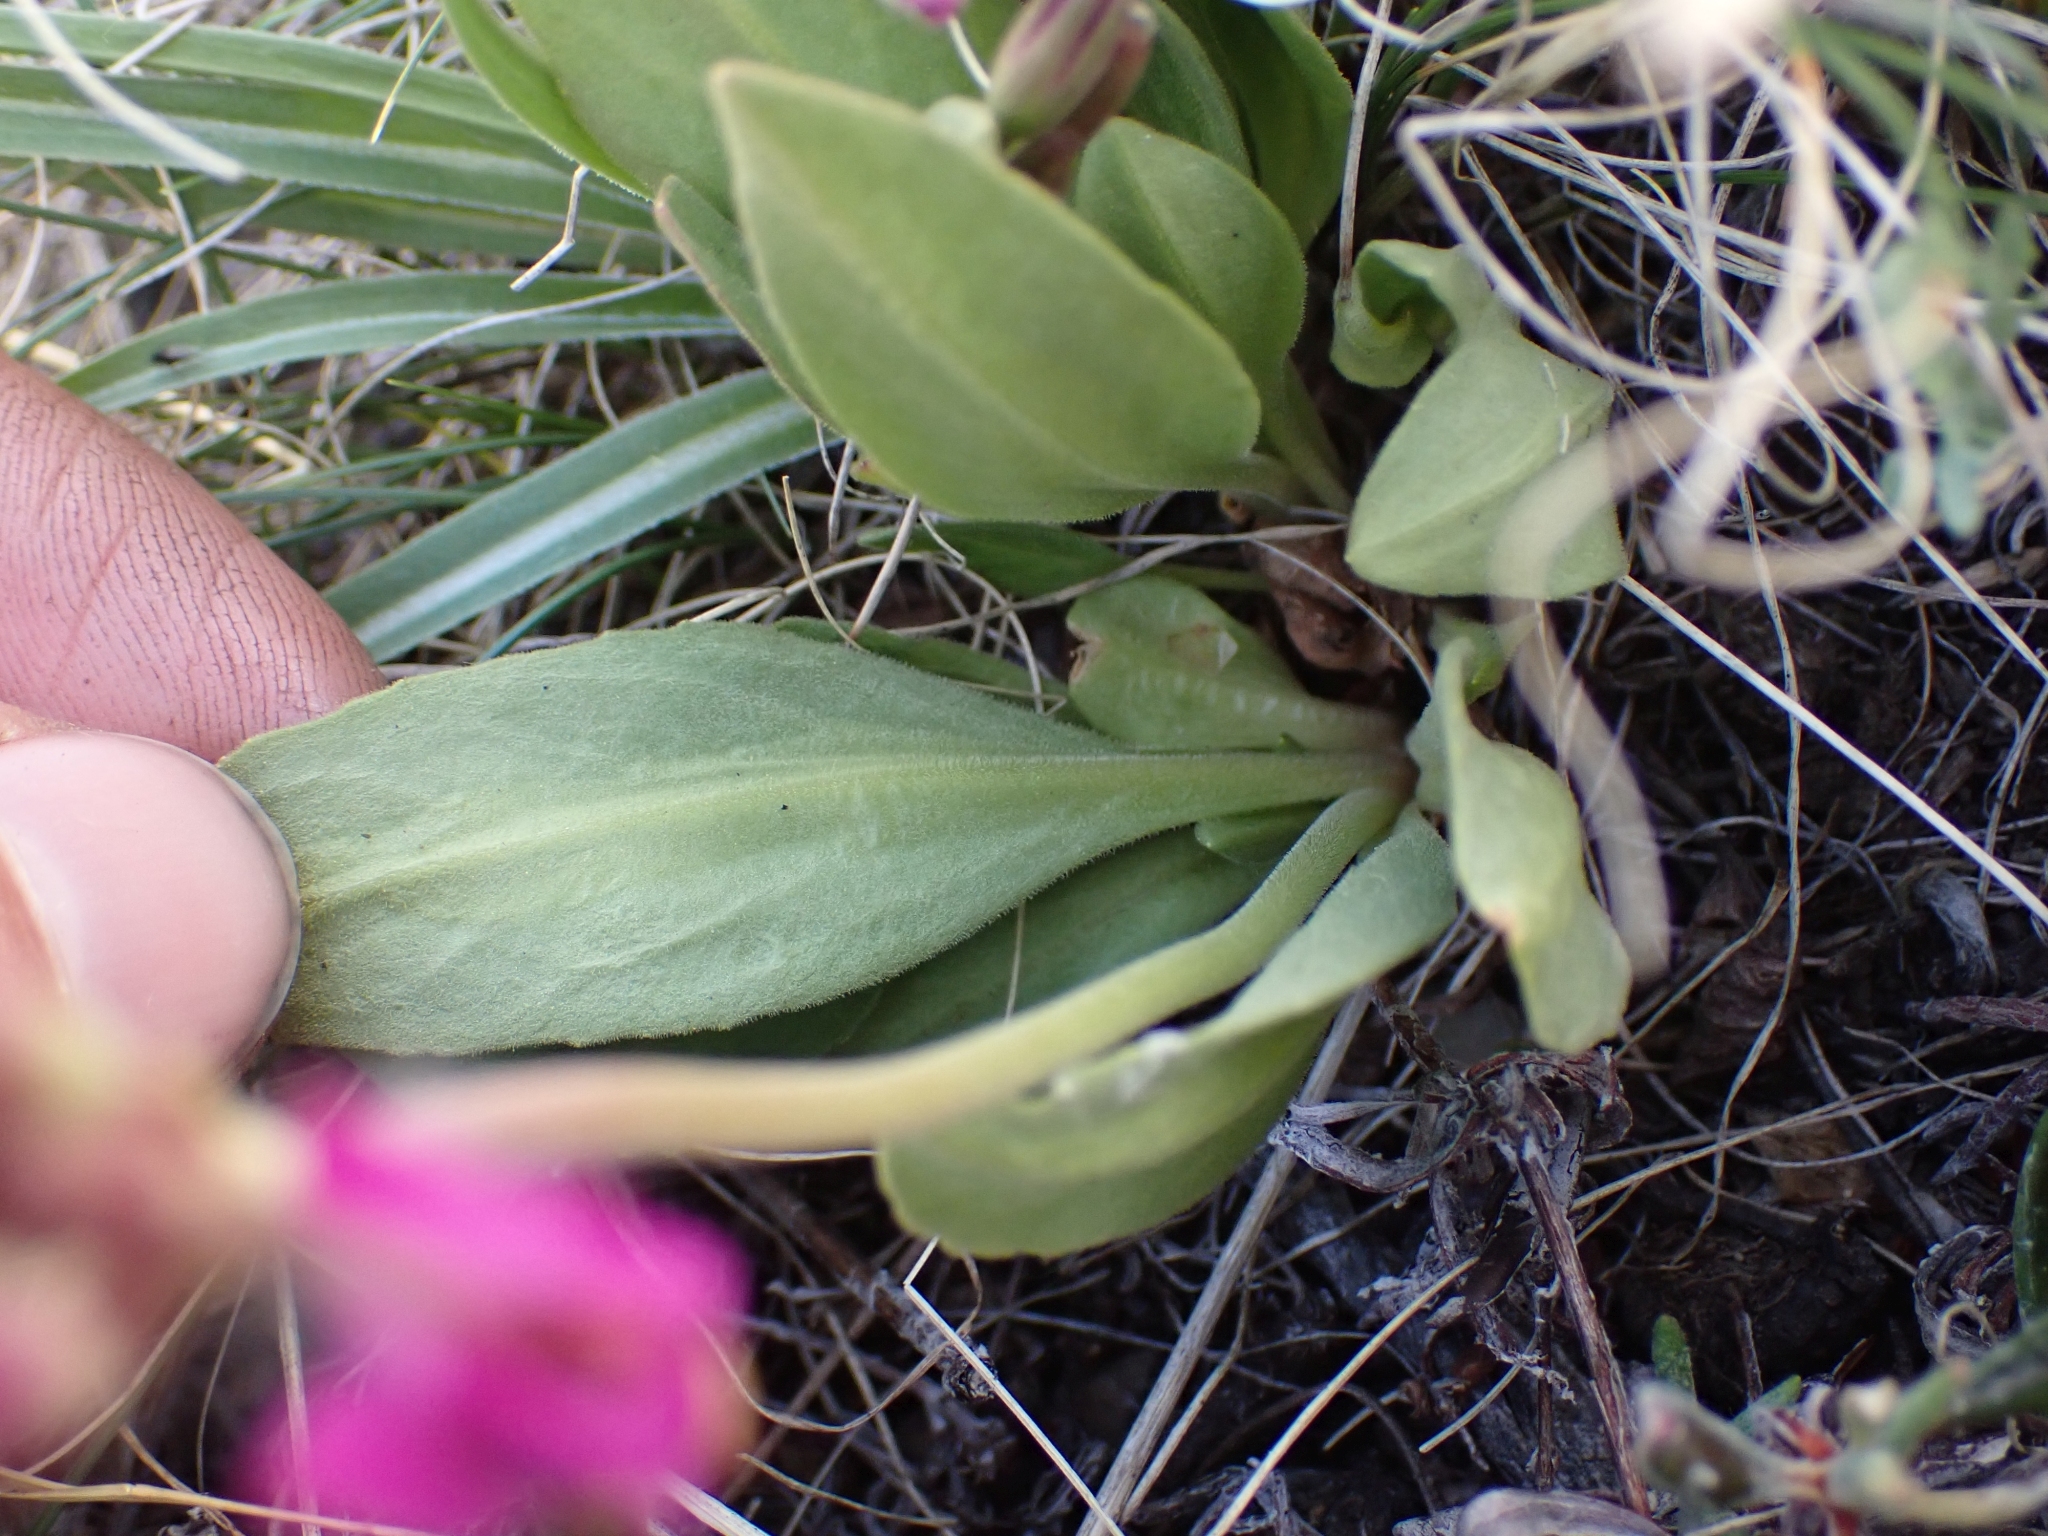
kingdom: Plantae
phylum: Tracheophyta
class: Magnoliopsida
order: Ericales
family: Primulaceae
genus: Dodecatheon
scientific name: Dodecatheon pulchellum
